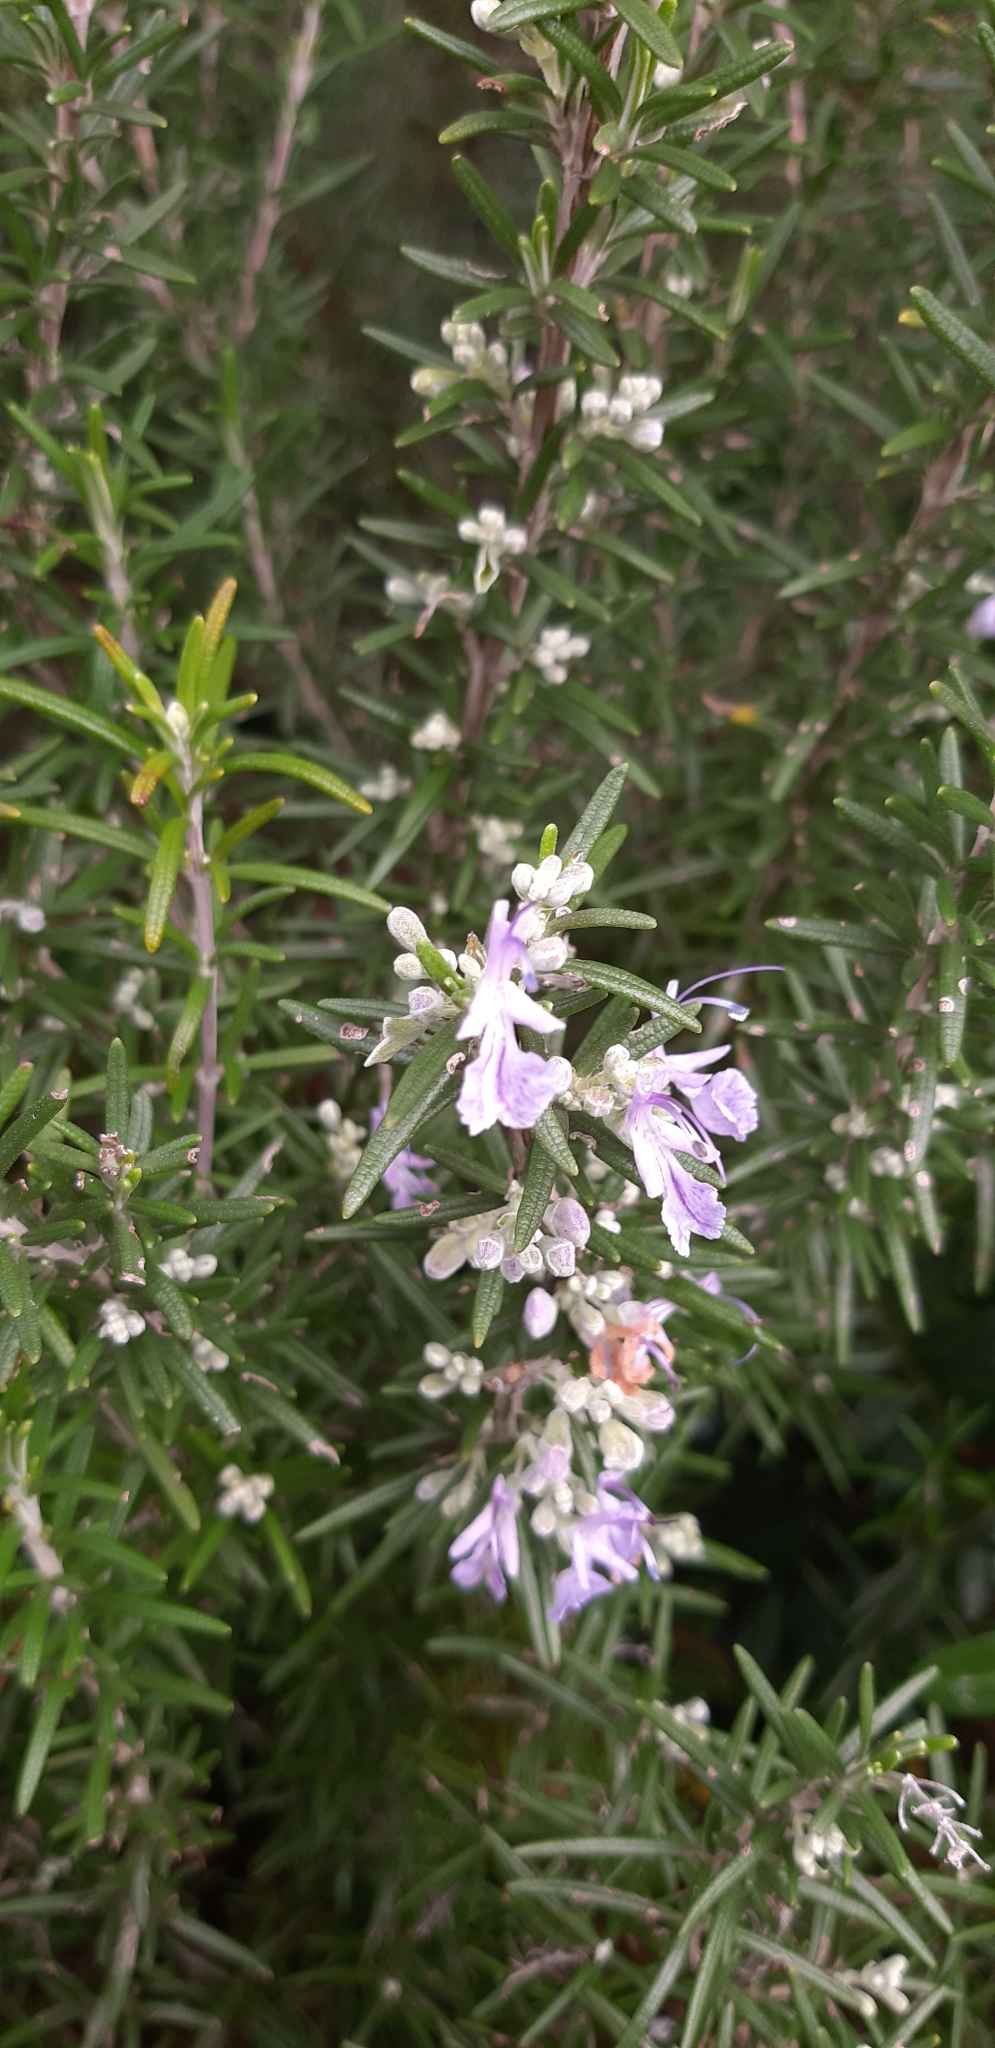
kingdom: Plantae
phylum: Tracheophyta
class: Magnoliopsida
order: Lamiales
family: Lamiaceae
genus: Salvia
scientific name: Salvia rosmarinus
